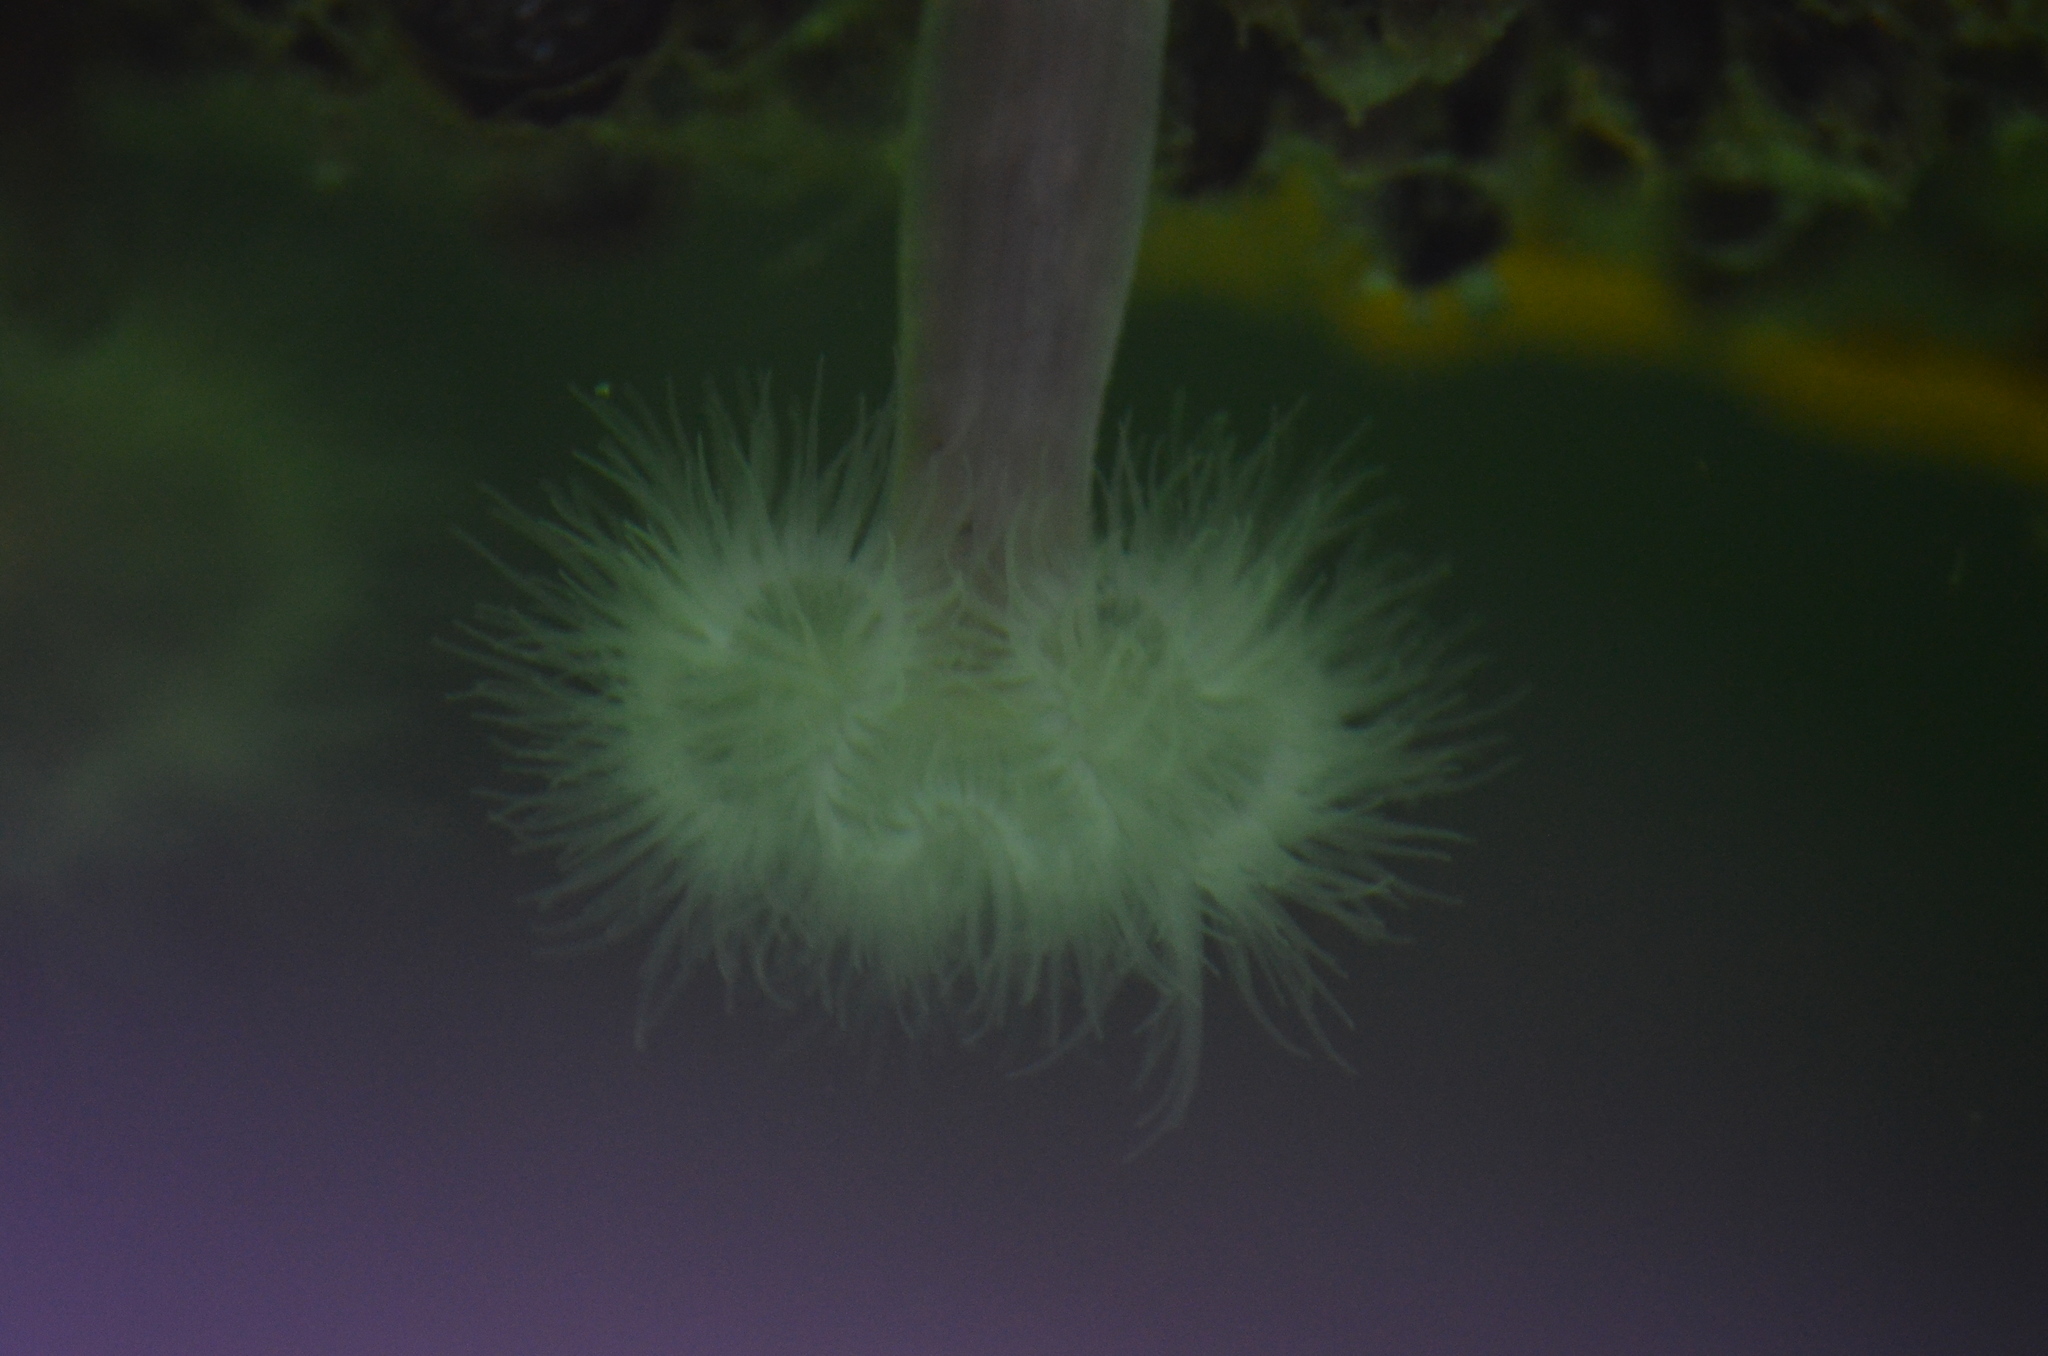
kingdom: Animalia
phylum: Cnidaria
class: Anthozoa
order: Actiniaria
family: Metridiidae
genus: Metridium
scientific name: Metridium senile
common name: Clonal plumose anemone
